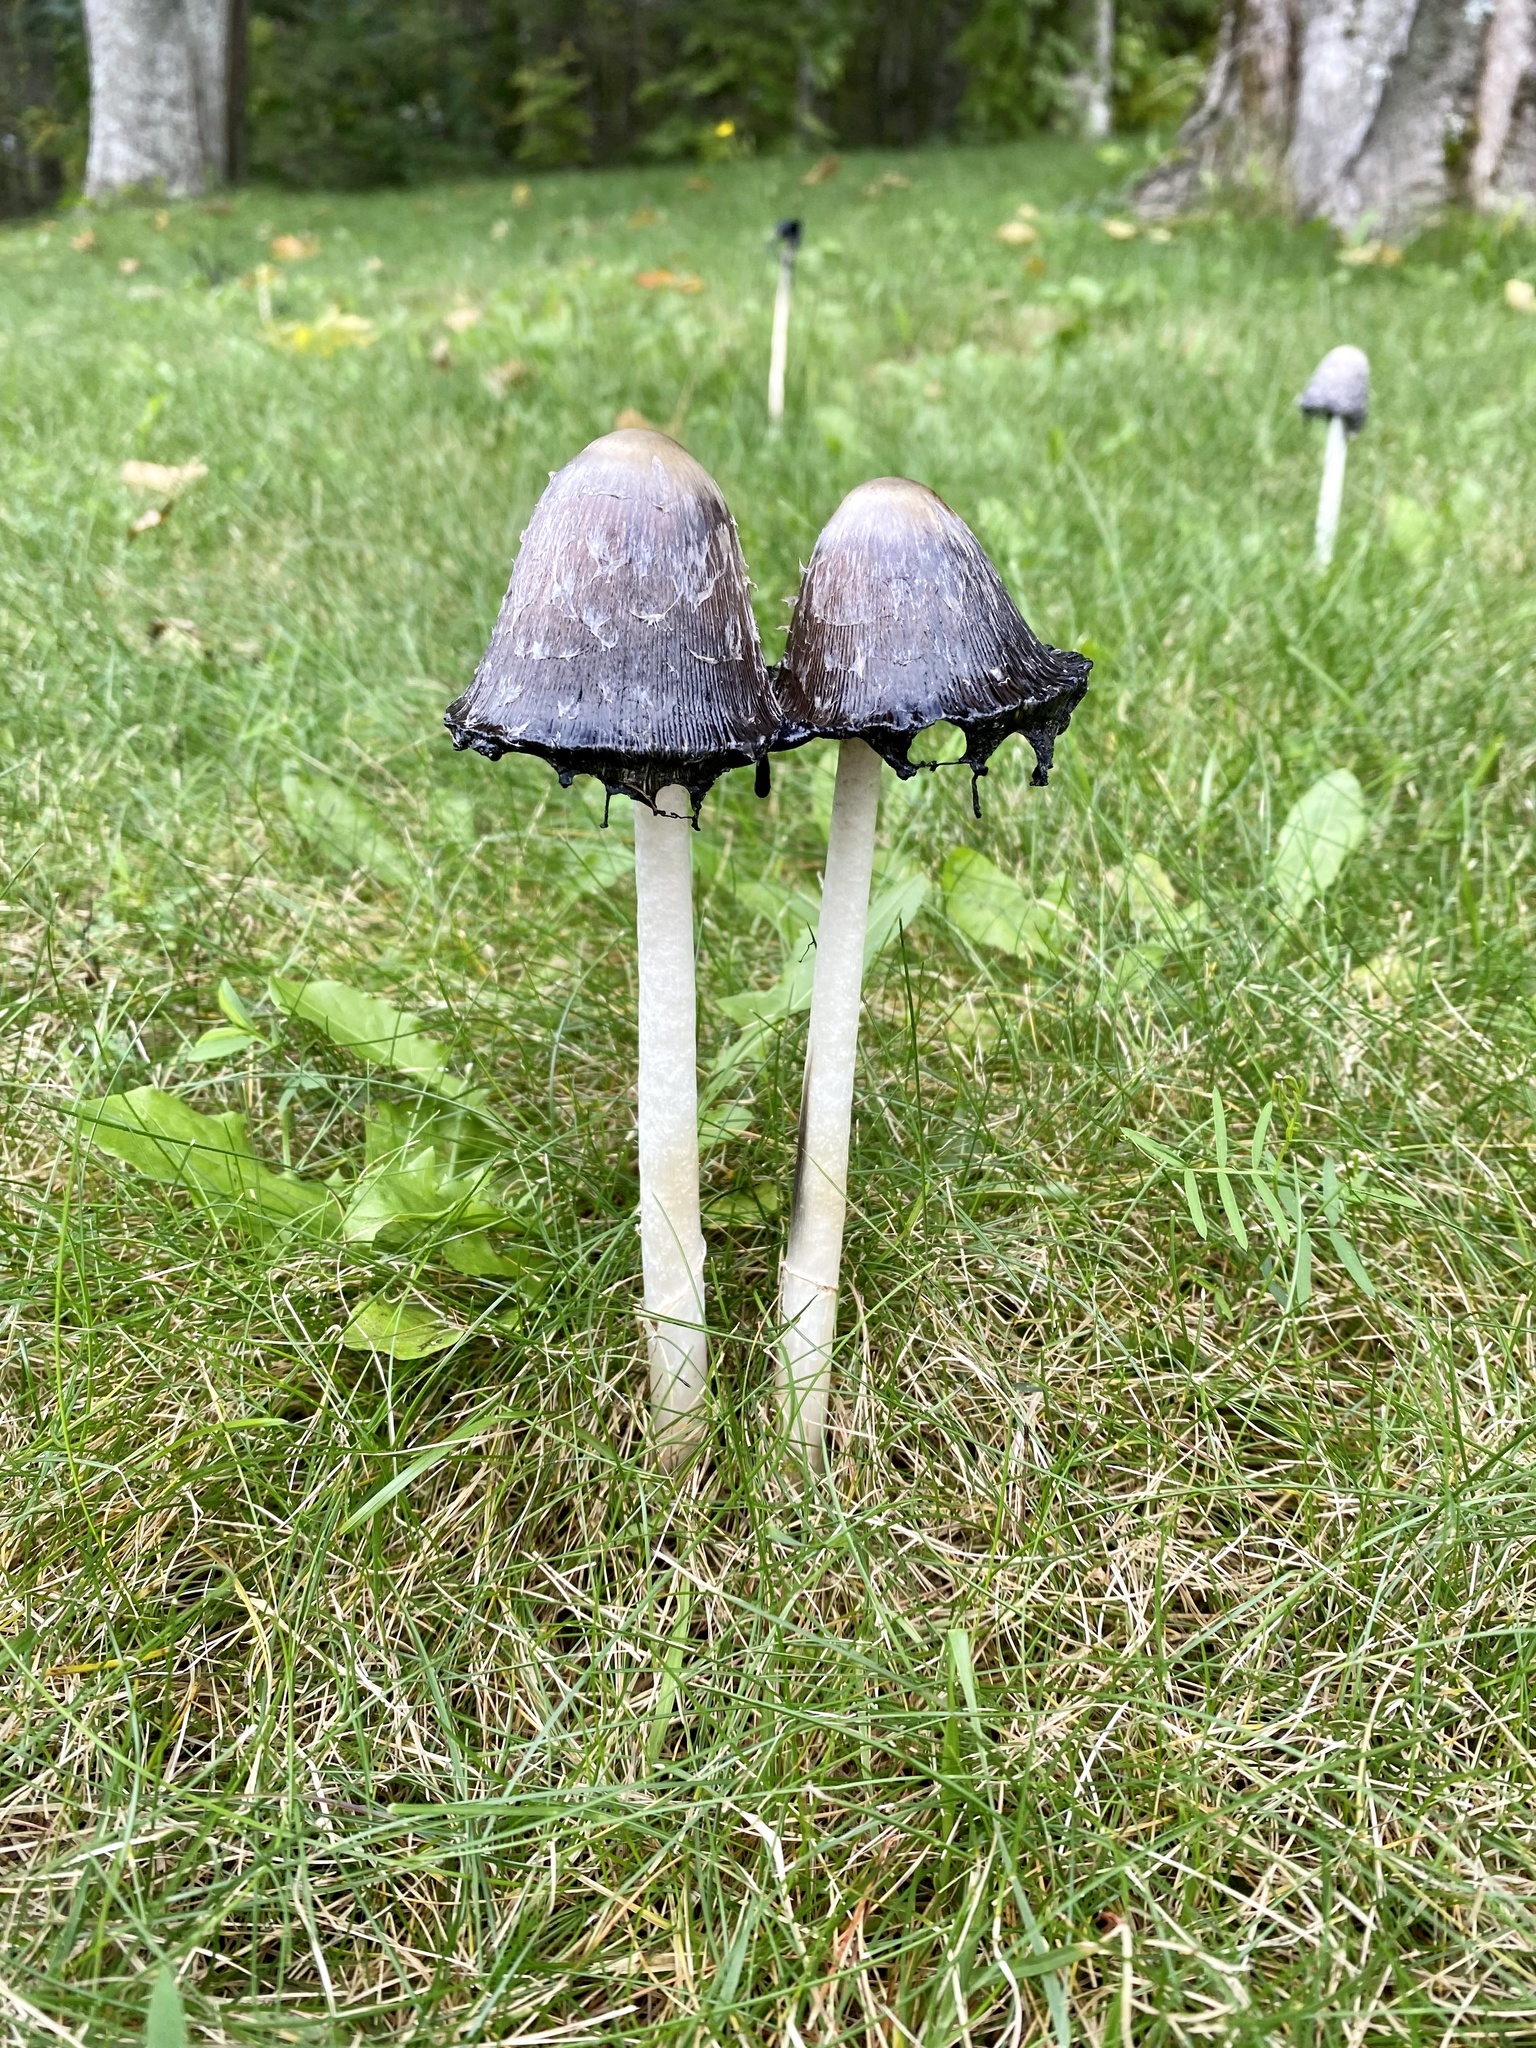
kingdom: Fungi
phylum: Basidiomycota
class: Agaricomycetes
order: Agaricales
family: Agaricaceae
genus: Coprinus
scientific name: Coprinus comatus
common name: Lawyer's wig
